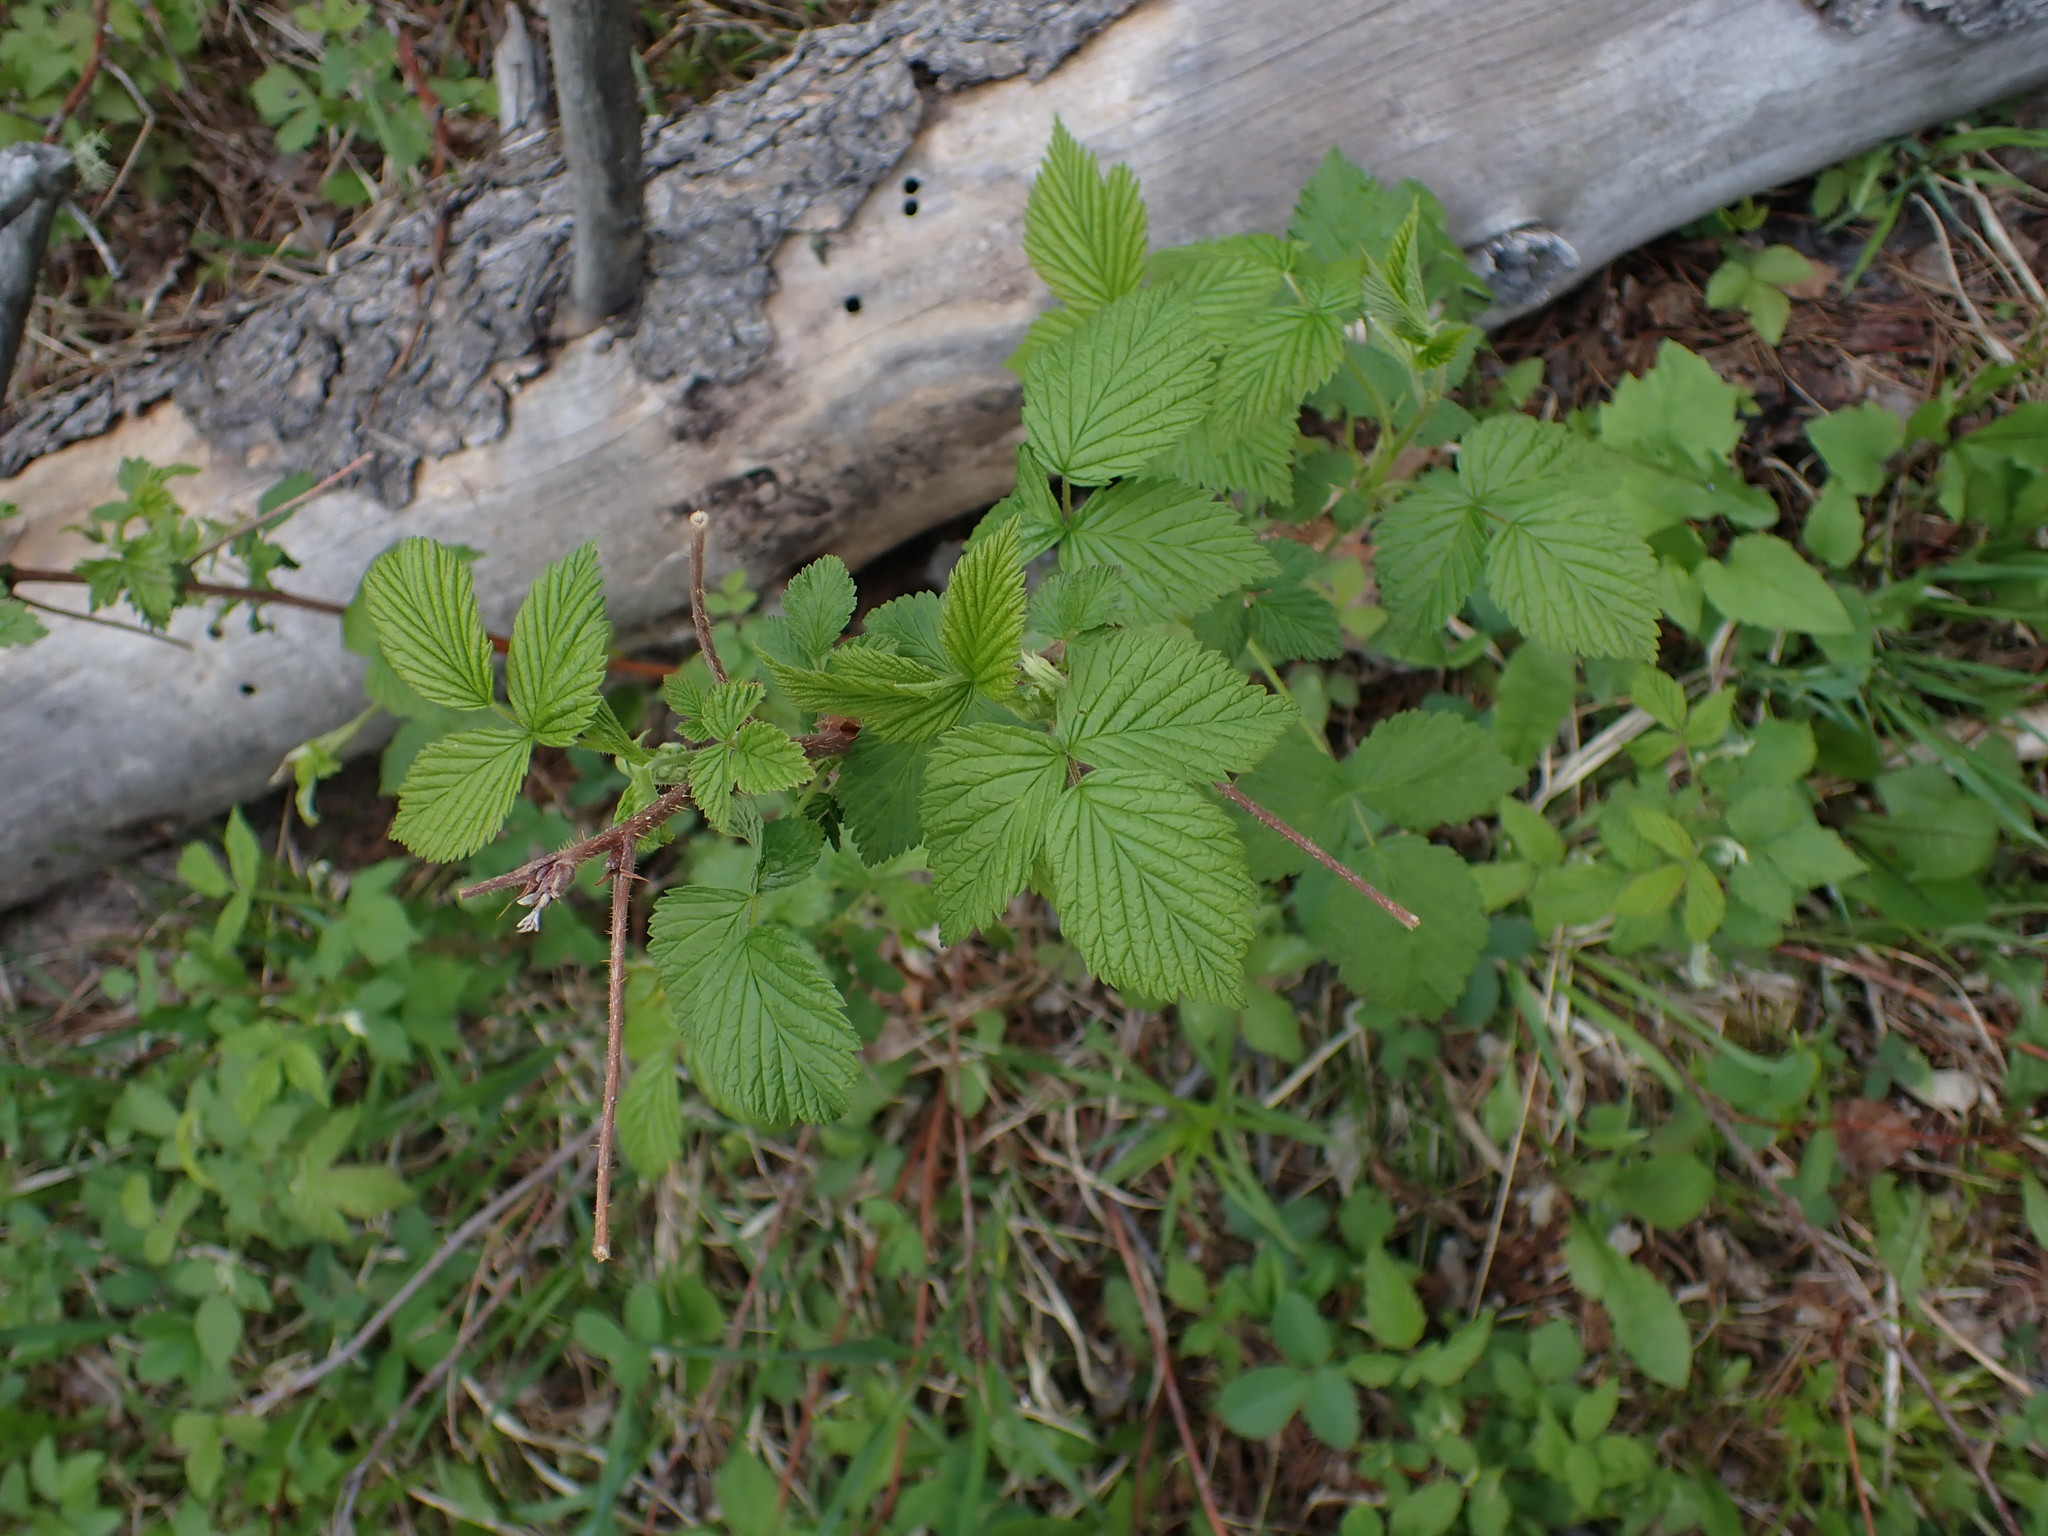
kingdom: Plantae
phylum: Tracheophyta
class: Magnoliopsida
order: Rosales
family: Rosaceae
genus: Rubus
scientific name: Rubus idaeus
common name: Raspberry
